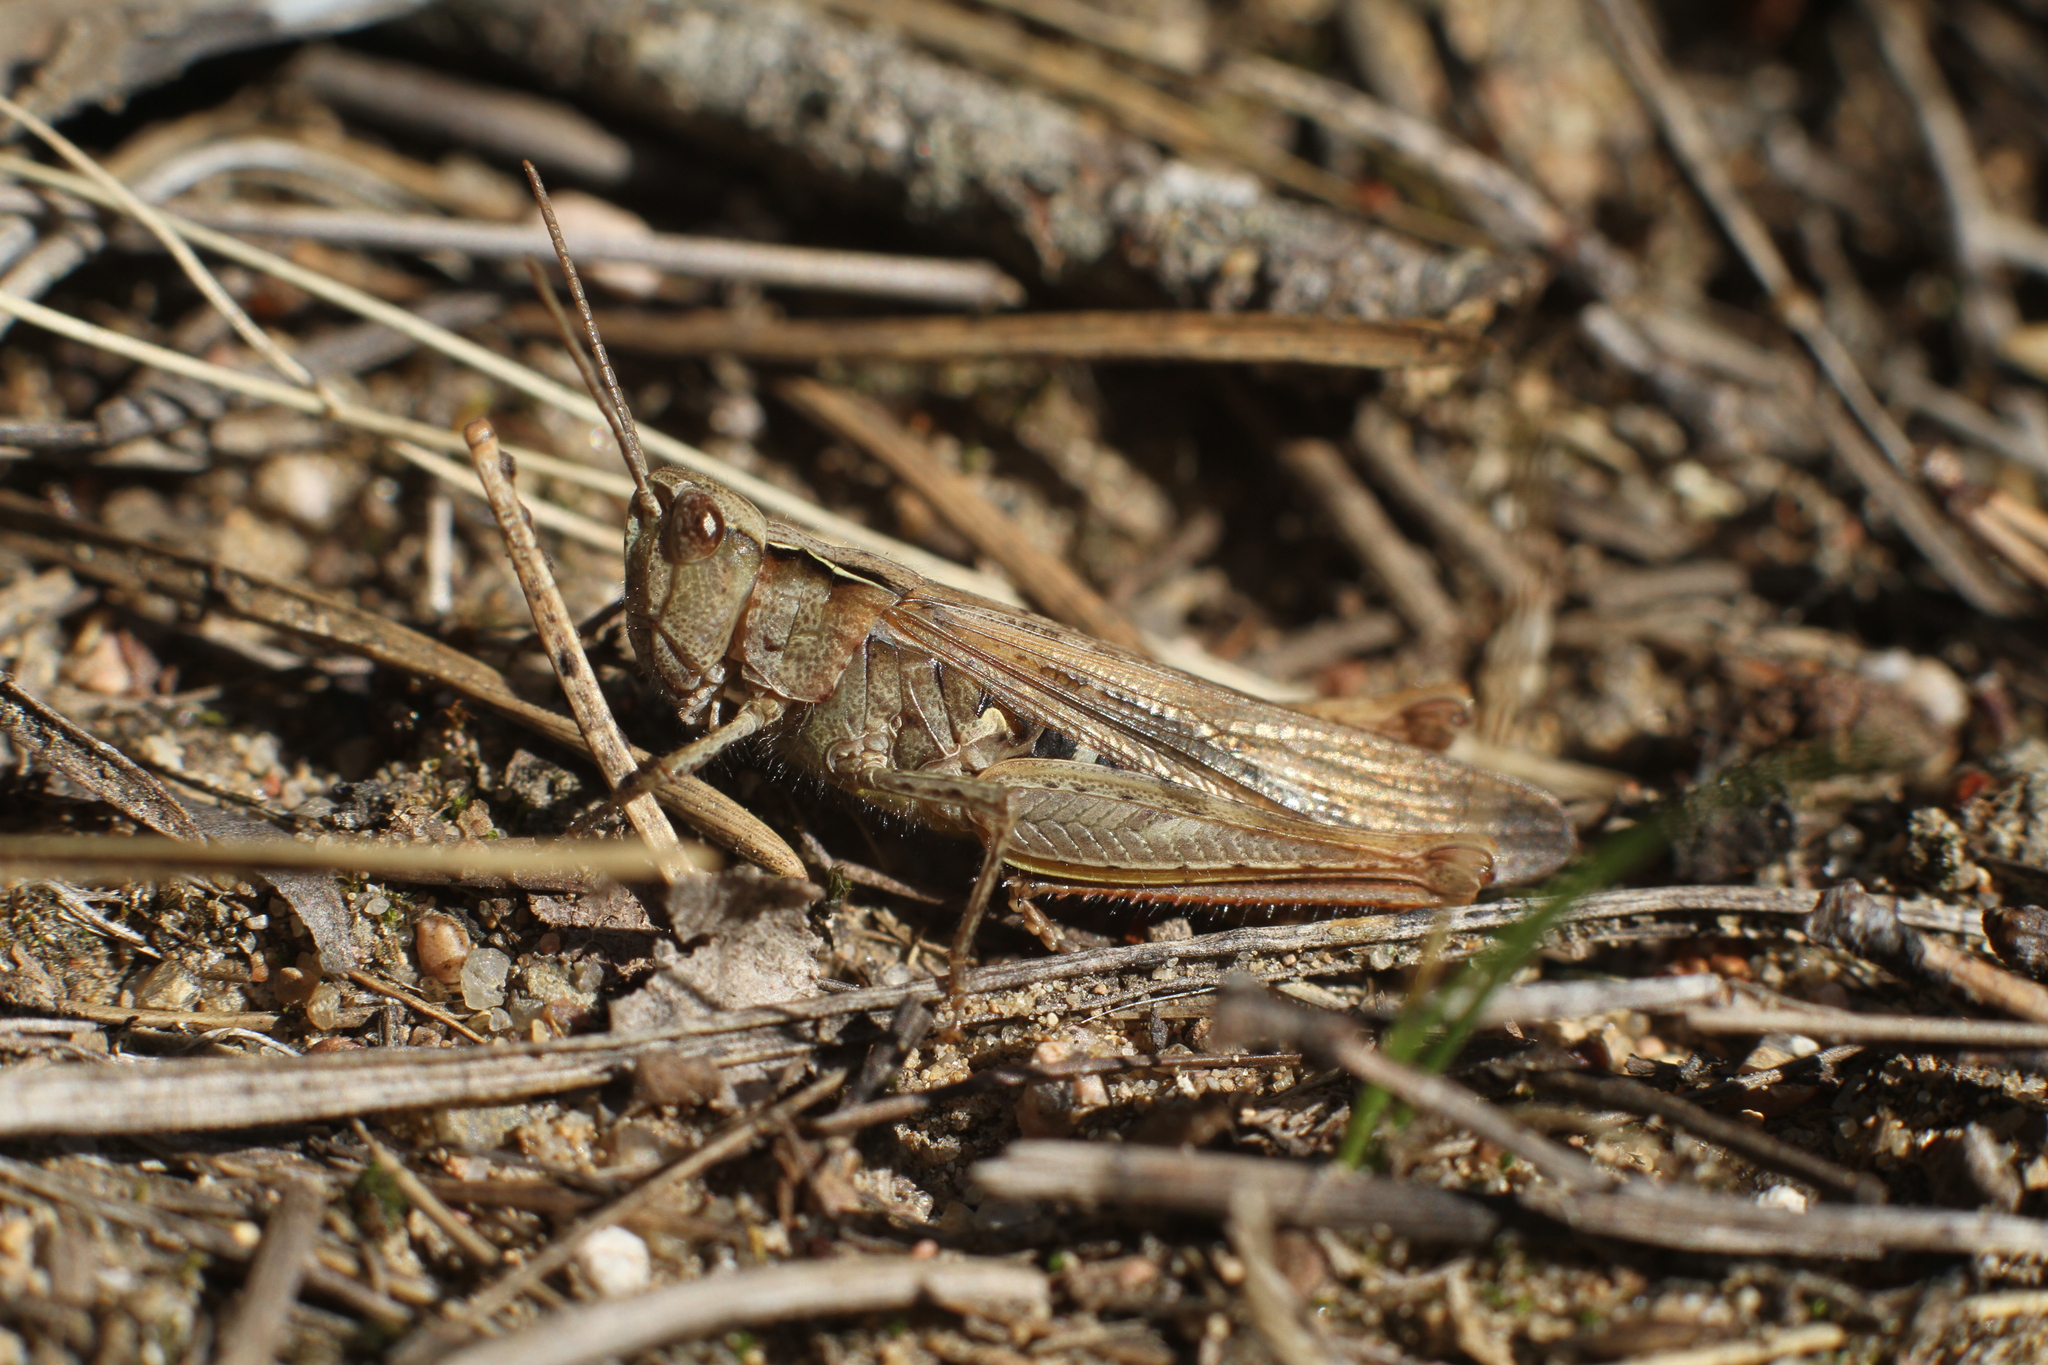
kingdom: Animalia
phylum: Arthropoda
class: Insecta
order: Orthoptera
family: Acrididae
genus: Chorthippus
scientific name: Chorthippus brunneus
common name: Field grasshopper
